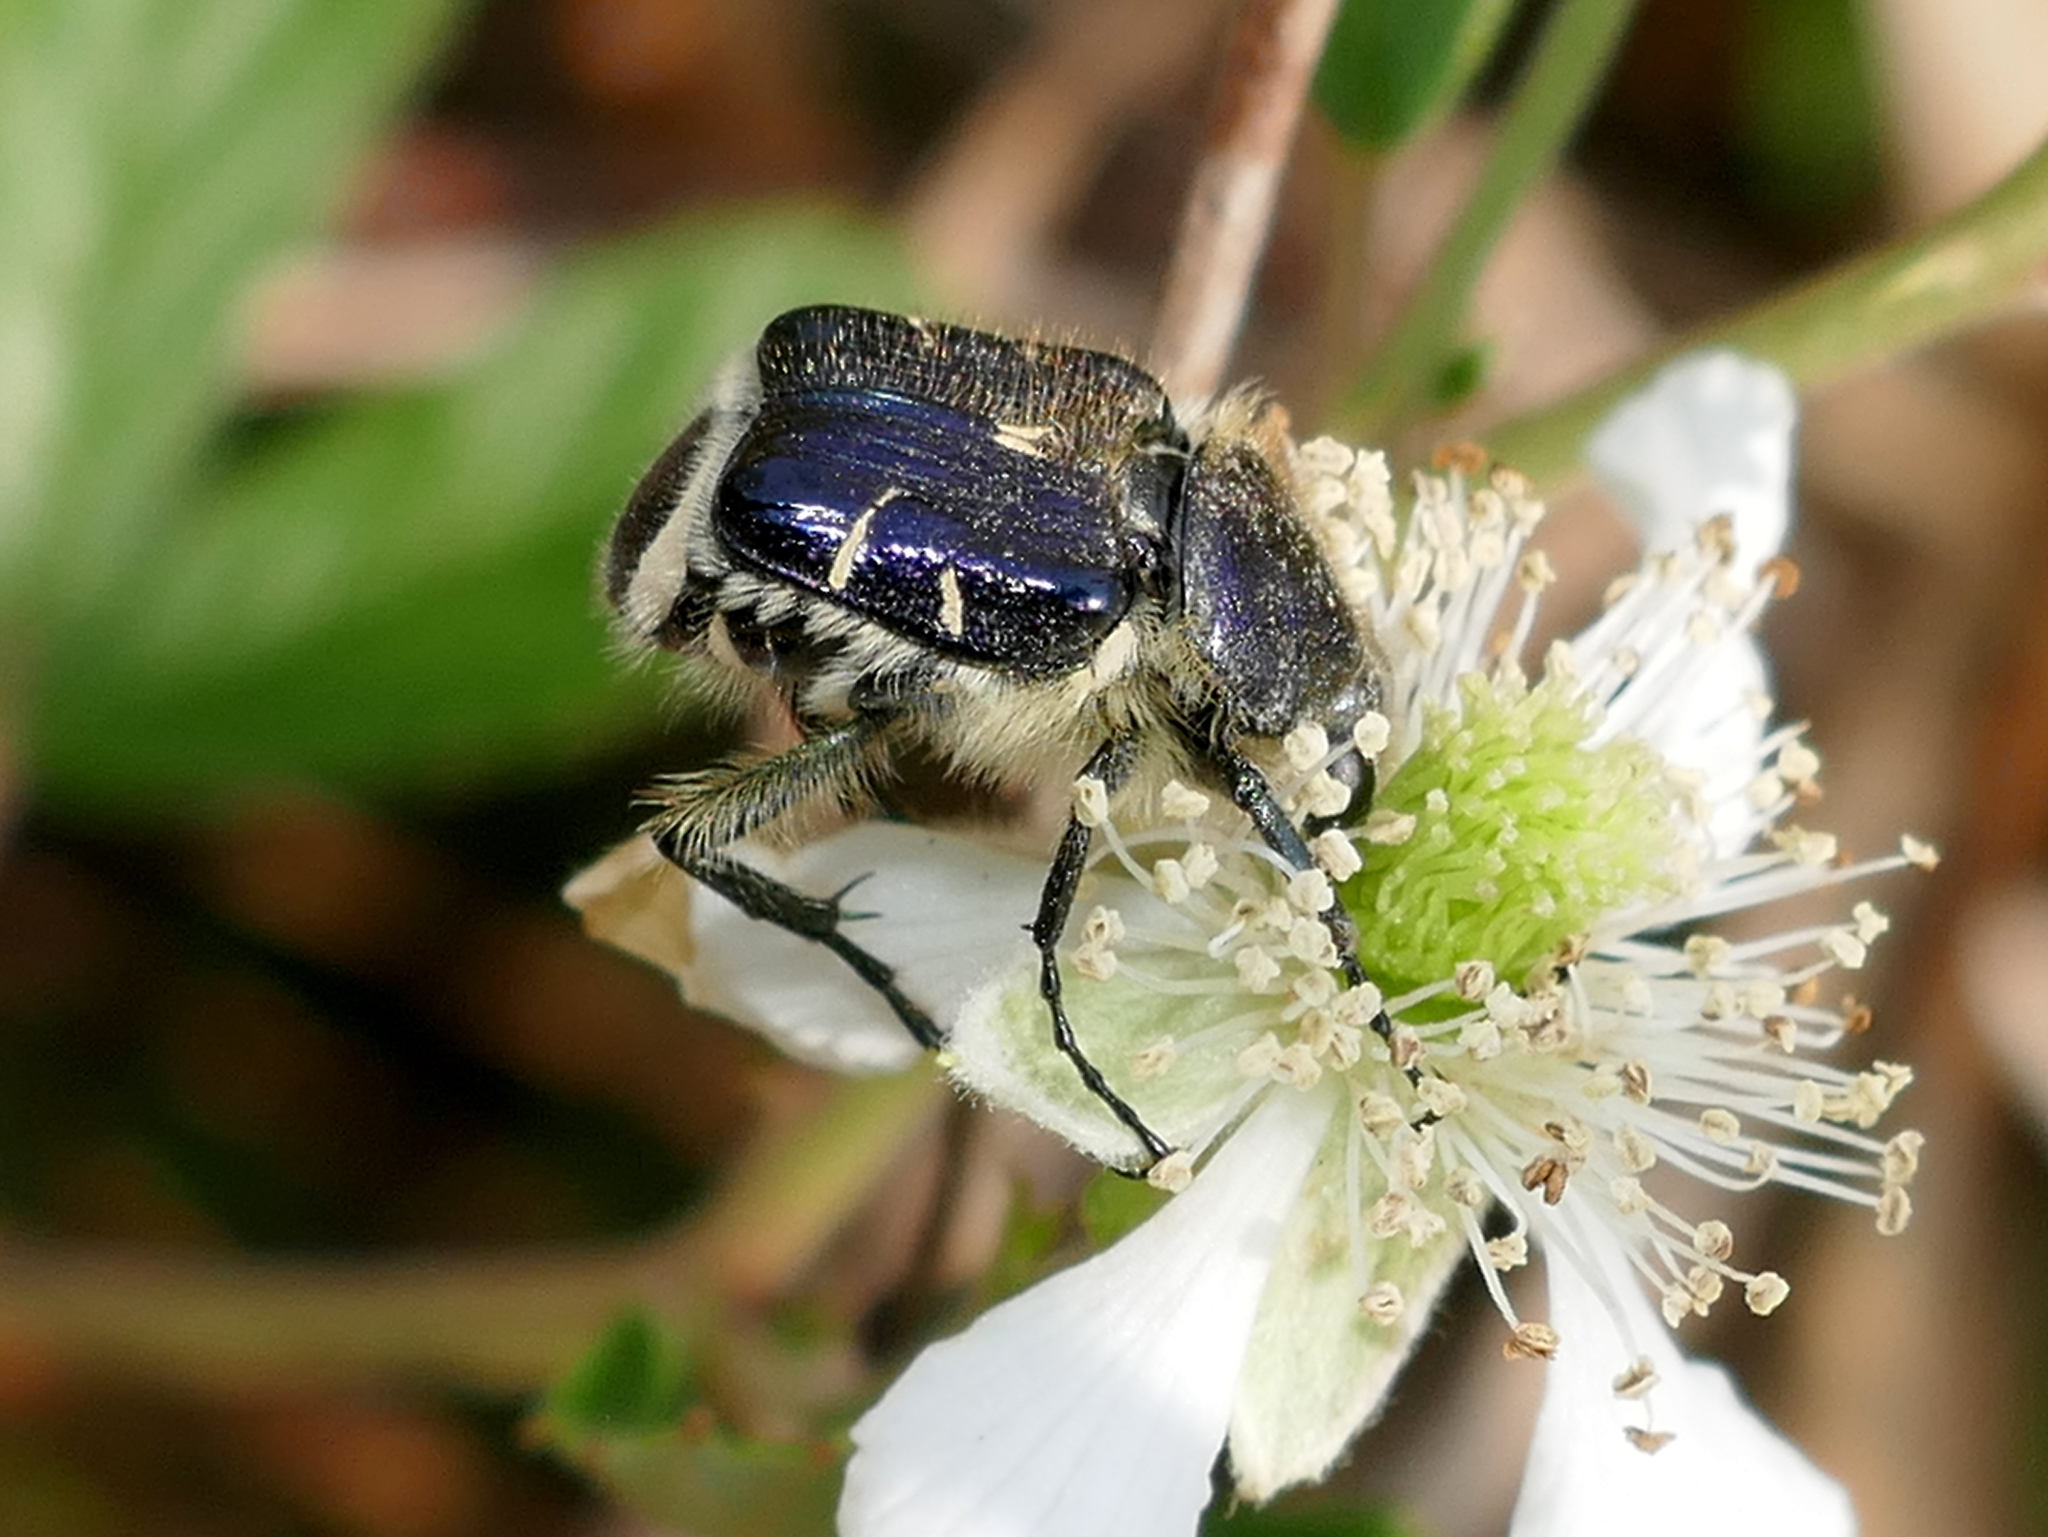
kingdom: Animalia
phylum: Arthropoda
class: Insecta
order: Coleoptera
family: Scarabaeidae
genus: Trichiotinus
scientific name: Trichiotinus lunulatus
